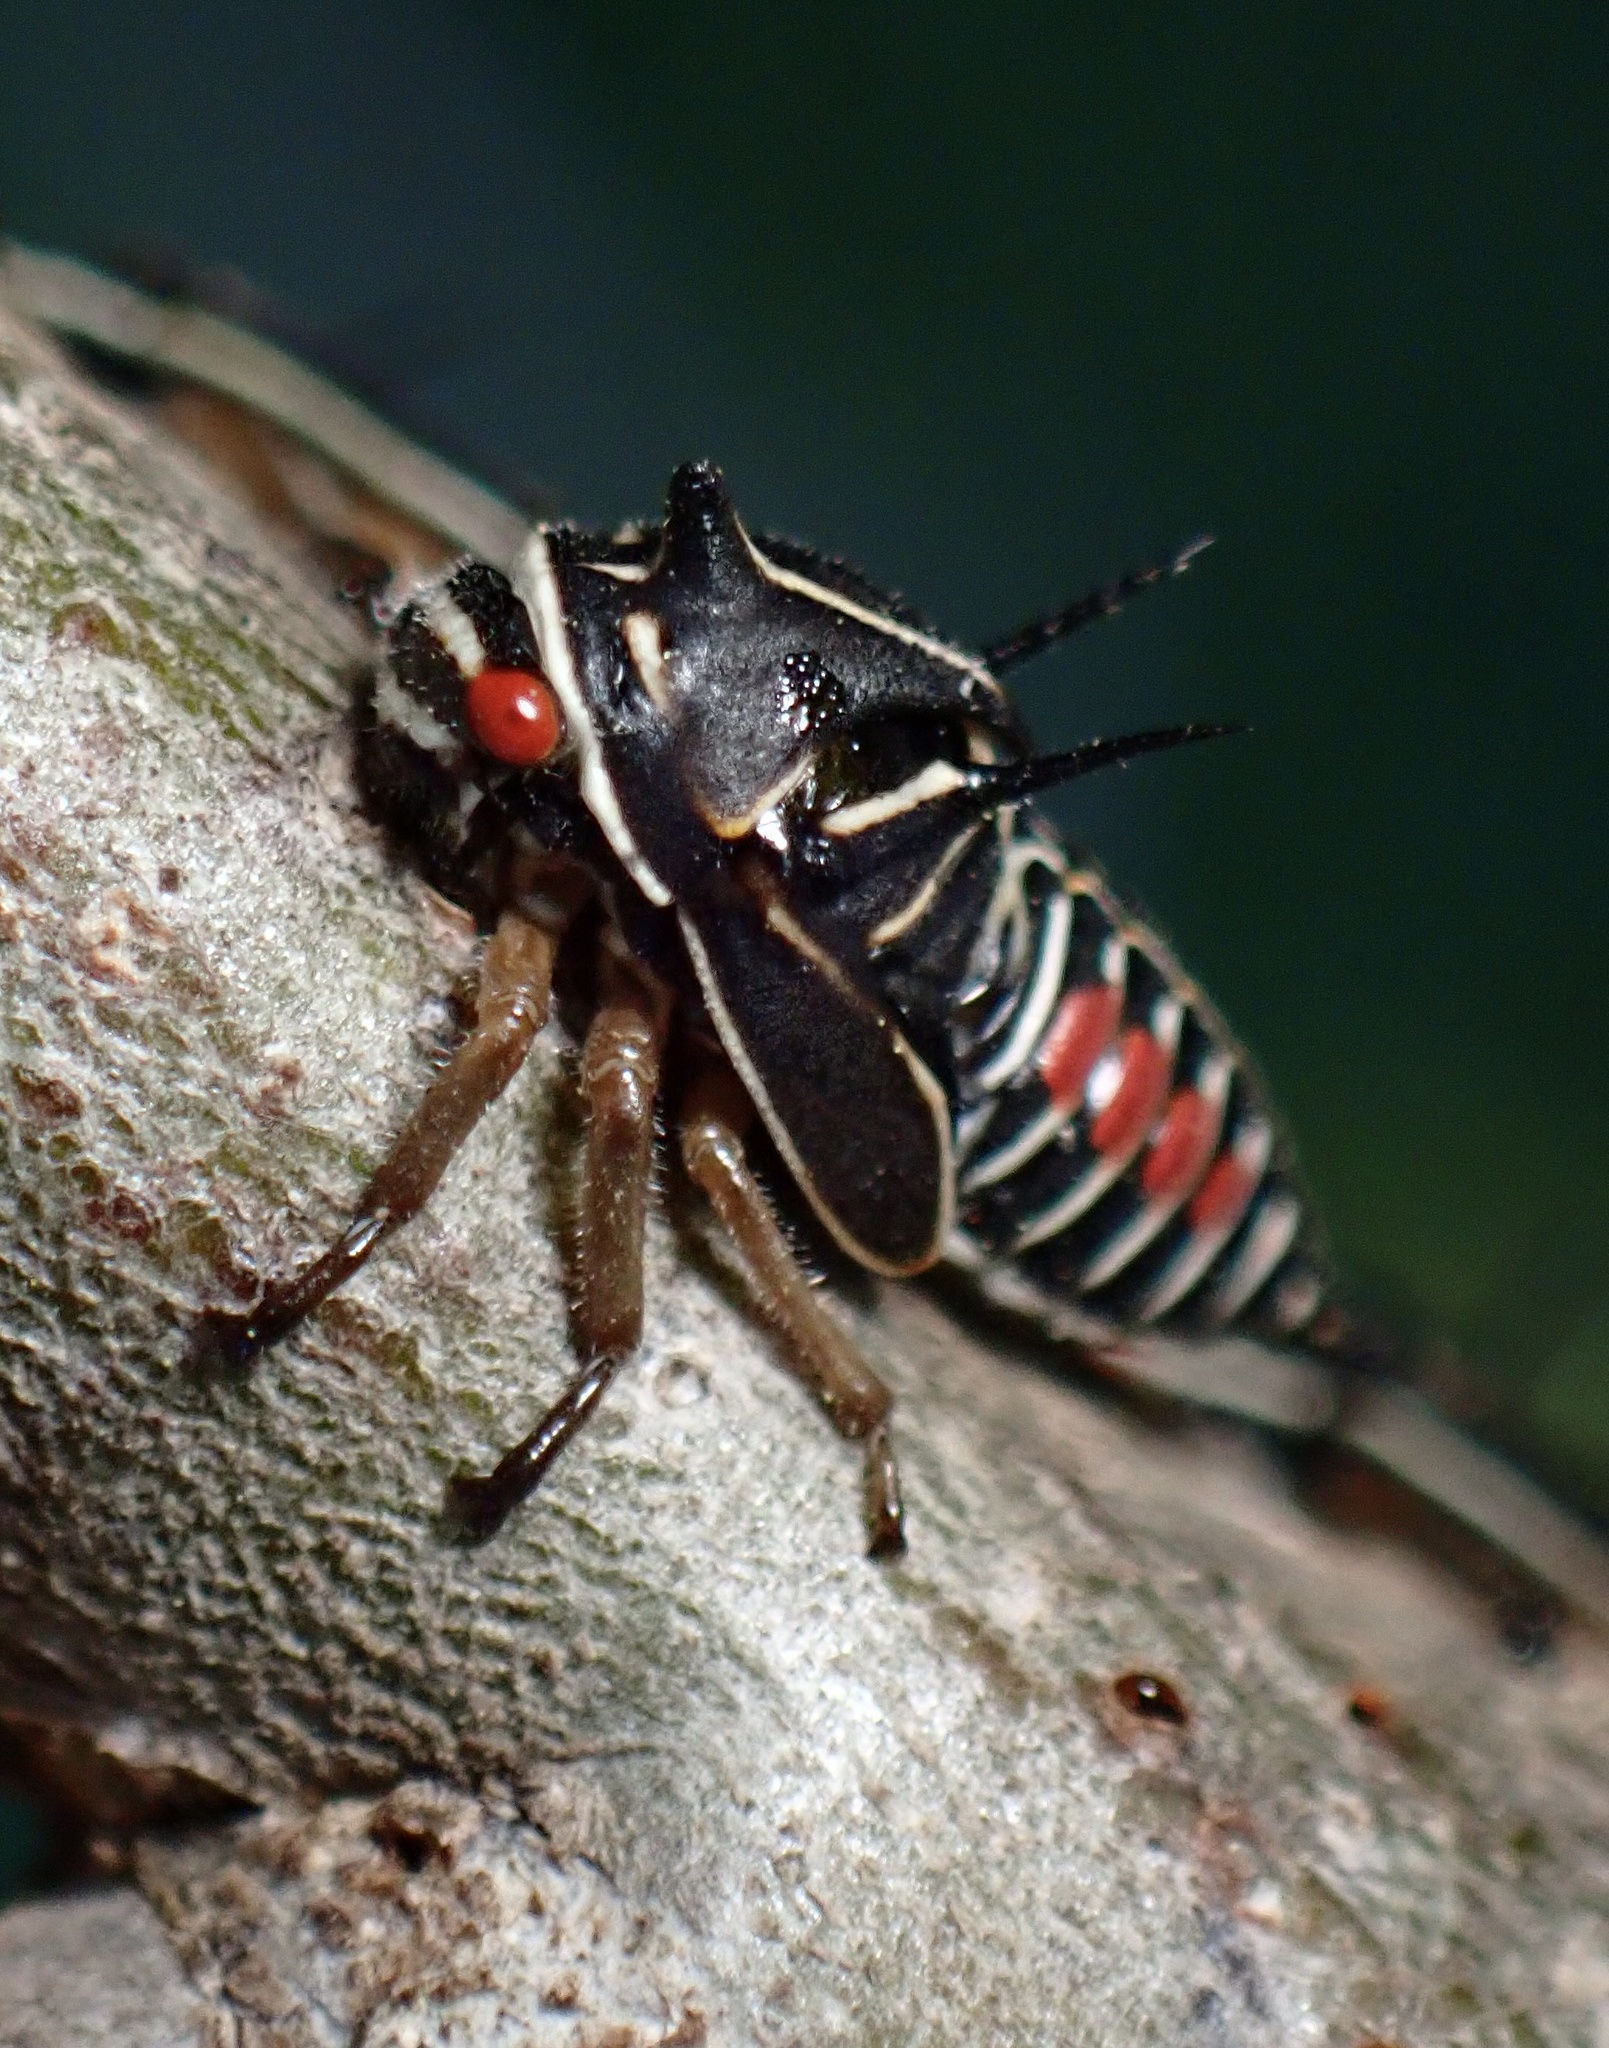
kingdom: Animalia
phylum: Arthropoda
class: Insecta
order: Hemiptera
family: Membracidae
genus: Platycotis
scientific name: Platycotis vittatus
